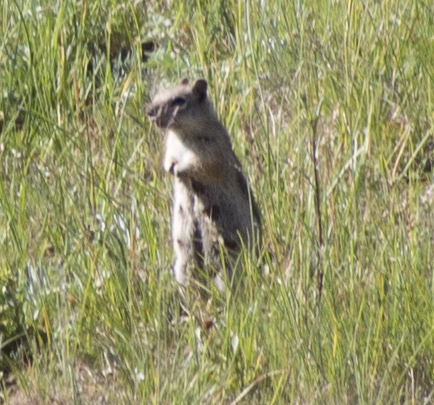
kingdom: Animalia
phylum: Chordata
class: Mammalia
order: Rodentia
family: Sciuridae
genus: Callospermophilus
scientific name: Callospermophilus lateralis
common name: Golden-mantled ground squirrel
